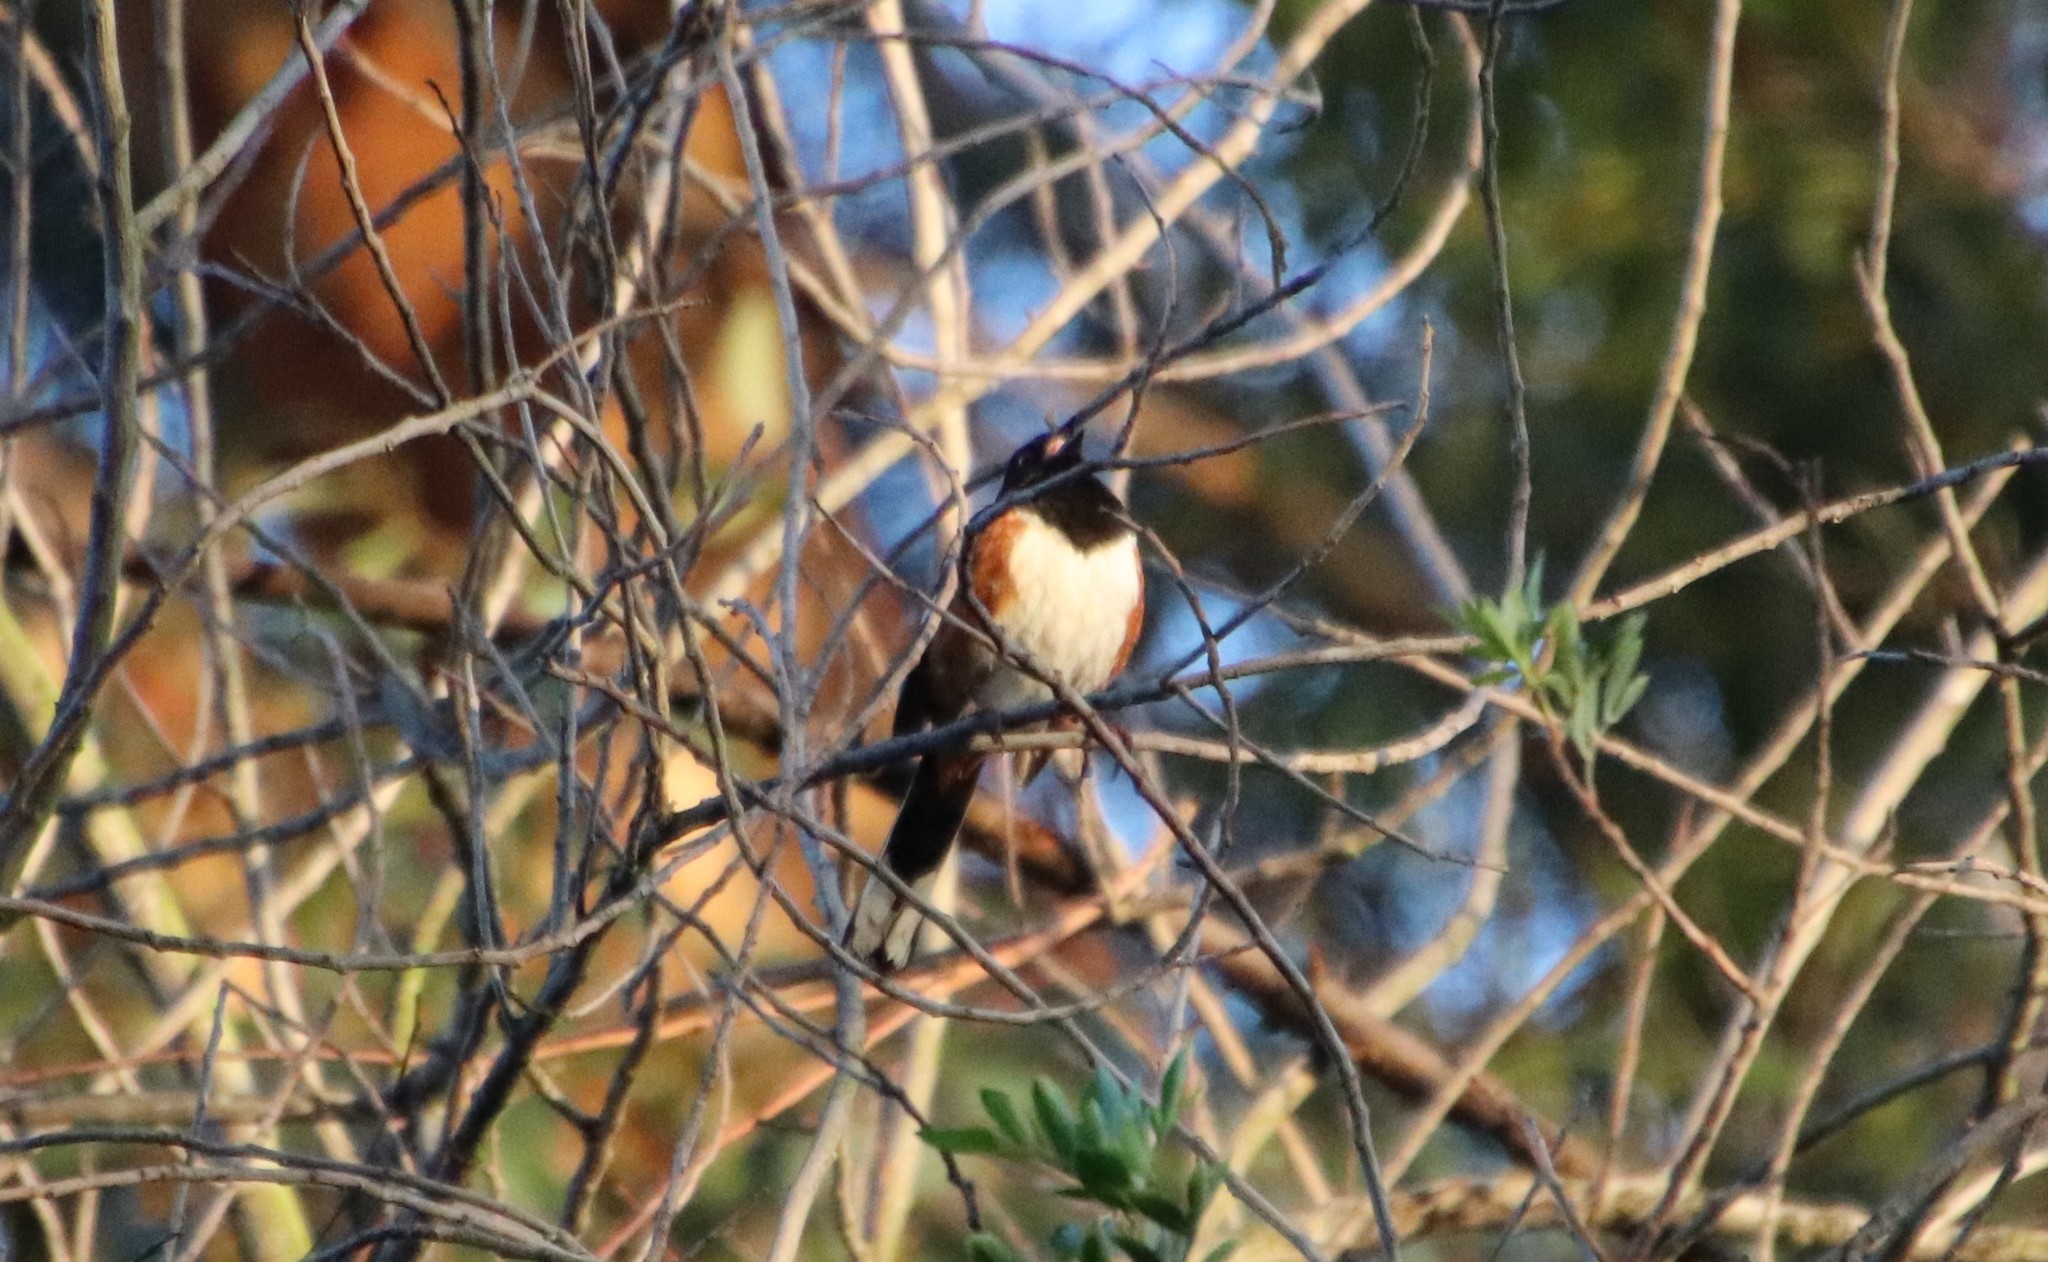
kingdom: Animalia
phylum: Chordata
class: Aves
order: Passeriformes
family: Passerellidae
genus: Pipilo
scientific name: Pipilo maculatus
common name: Spotted towhee
